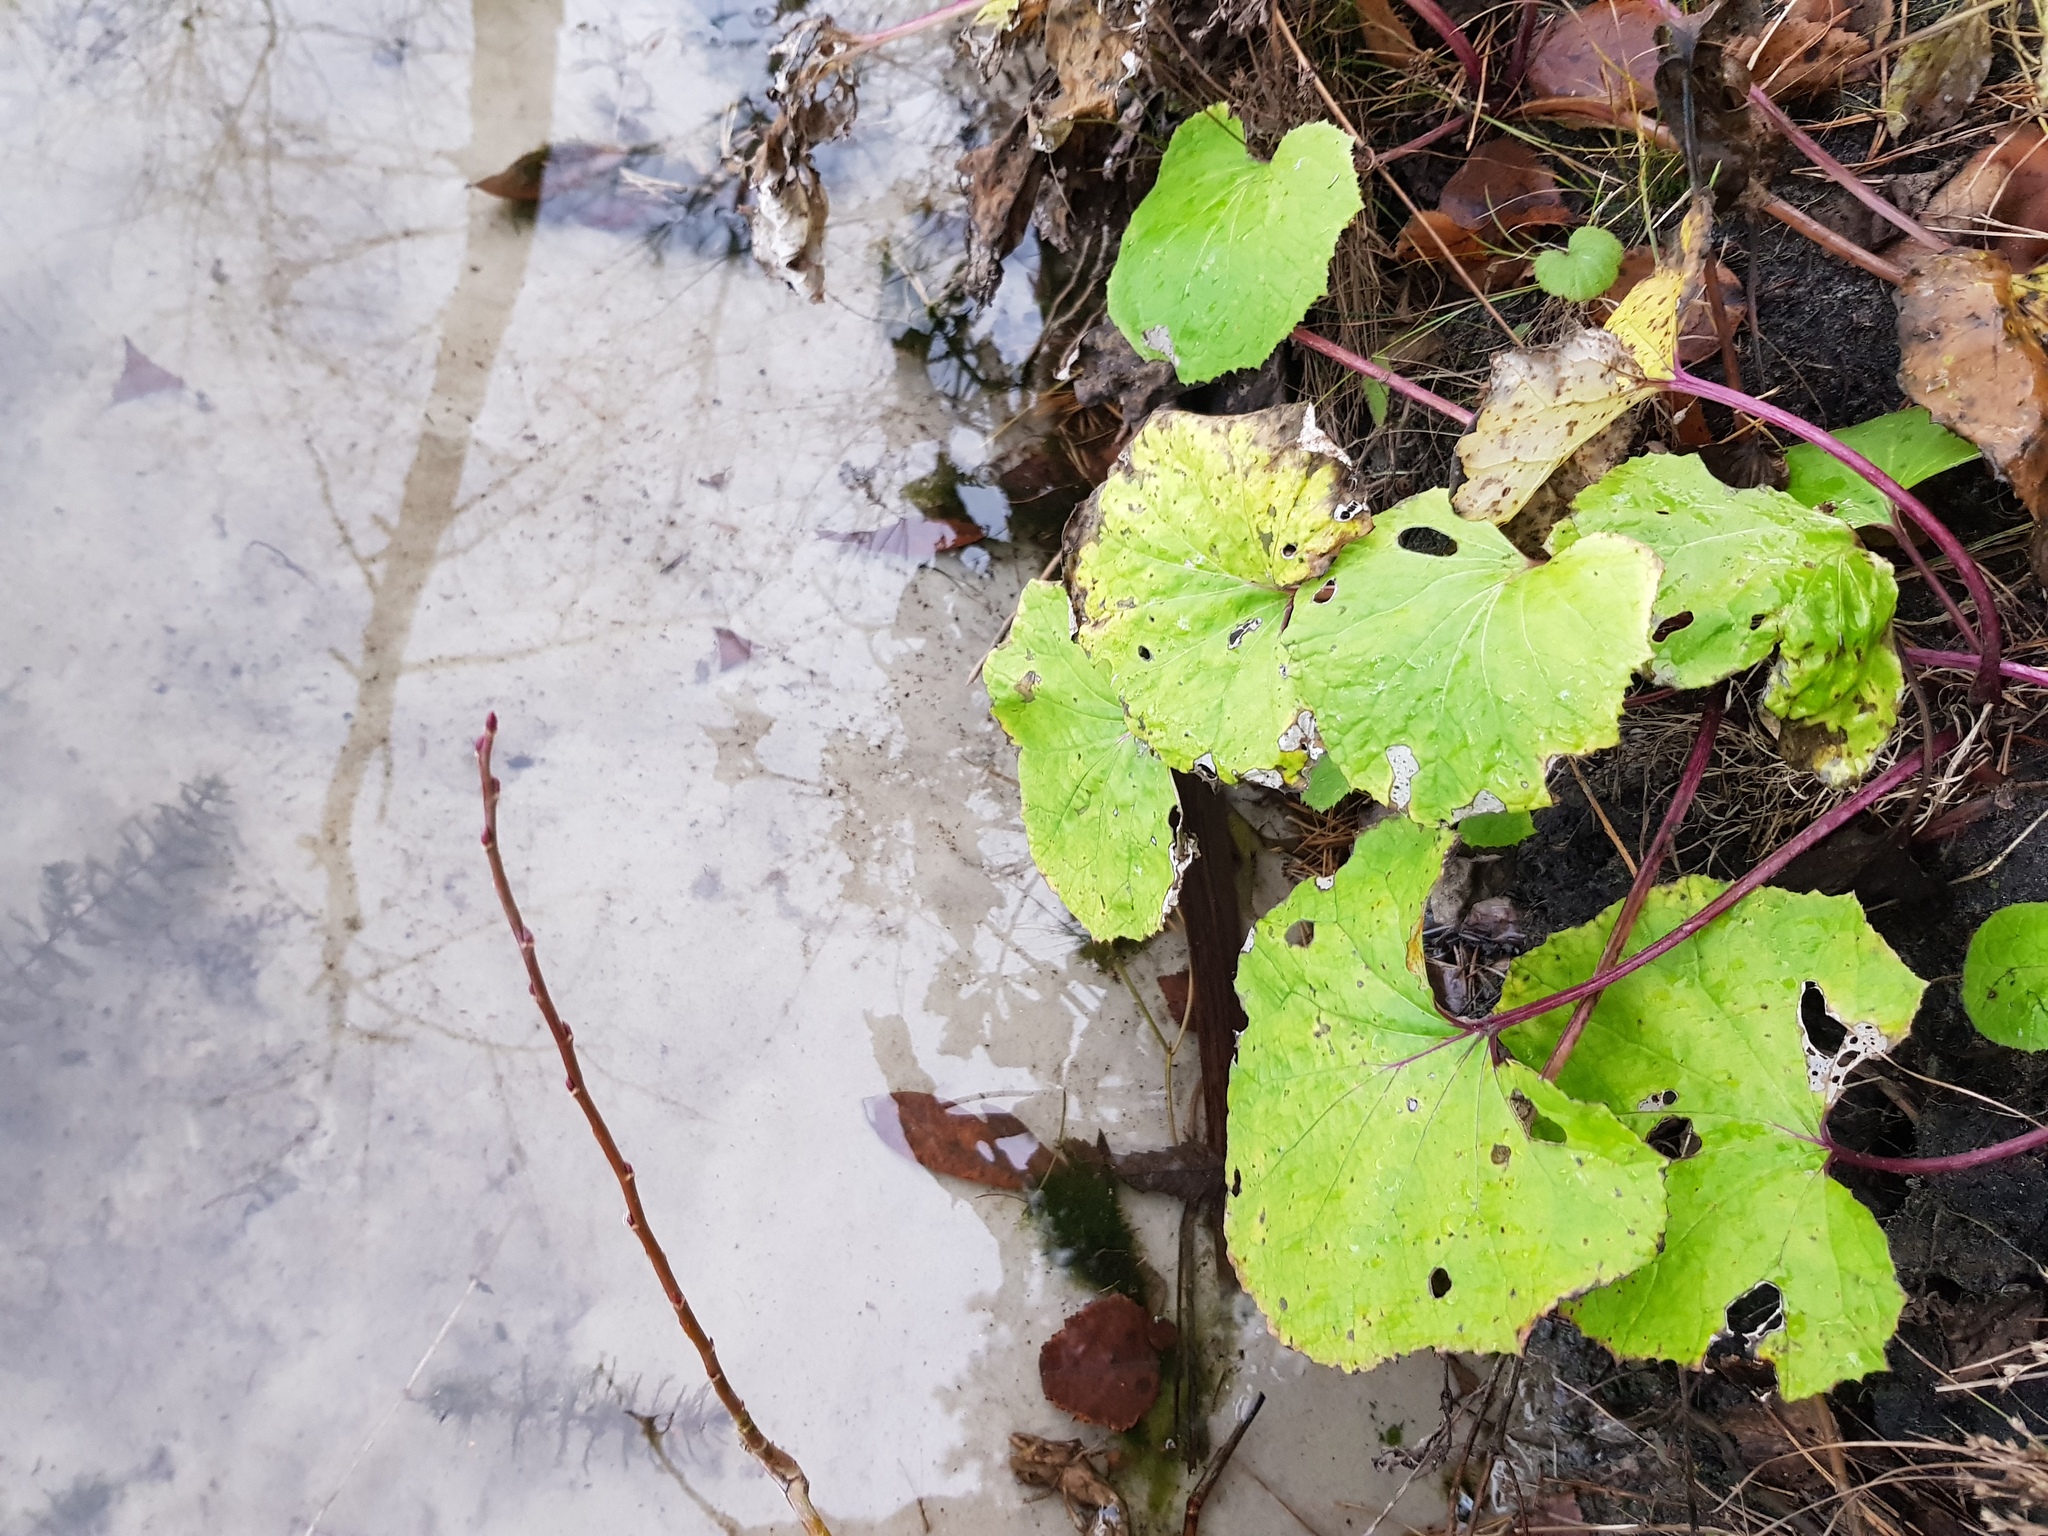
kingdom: Plantae
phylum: Tracheophyta
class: Magnoliopsida
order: Asterales
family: Asteraceae
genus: Tussilago
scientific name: Tussilago farfara
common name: Coltsfoot
